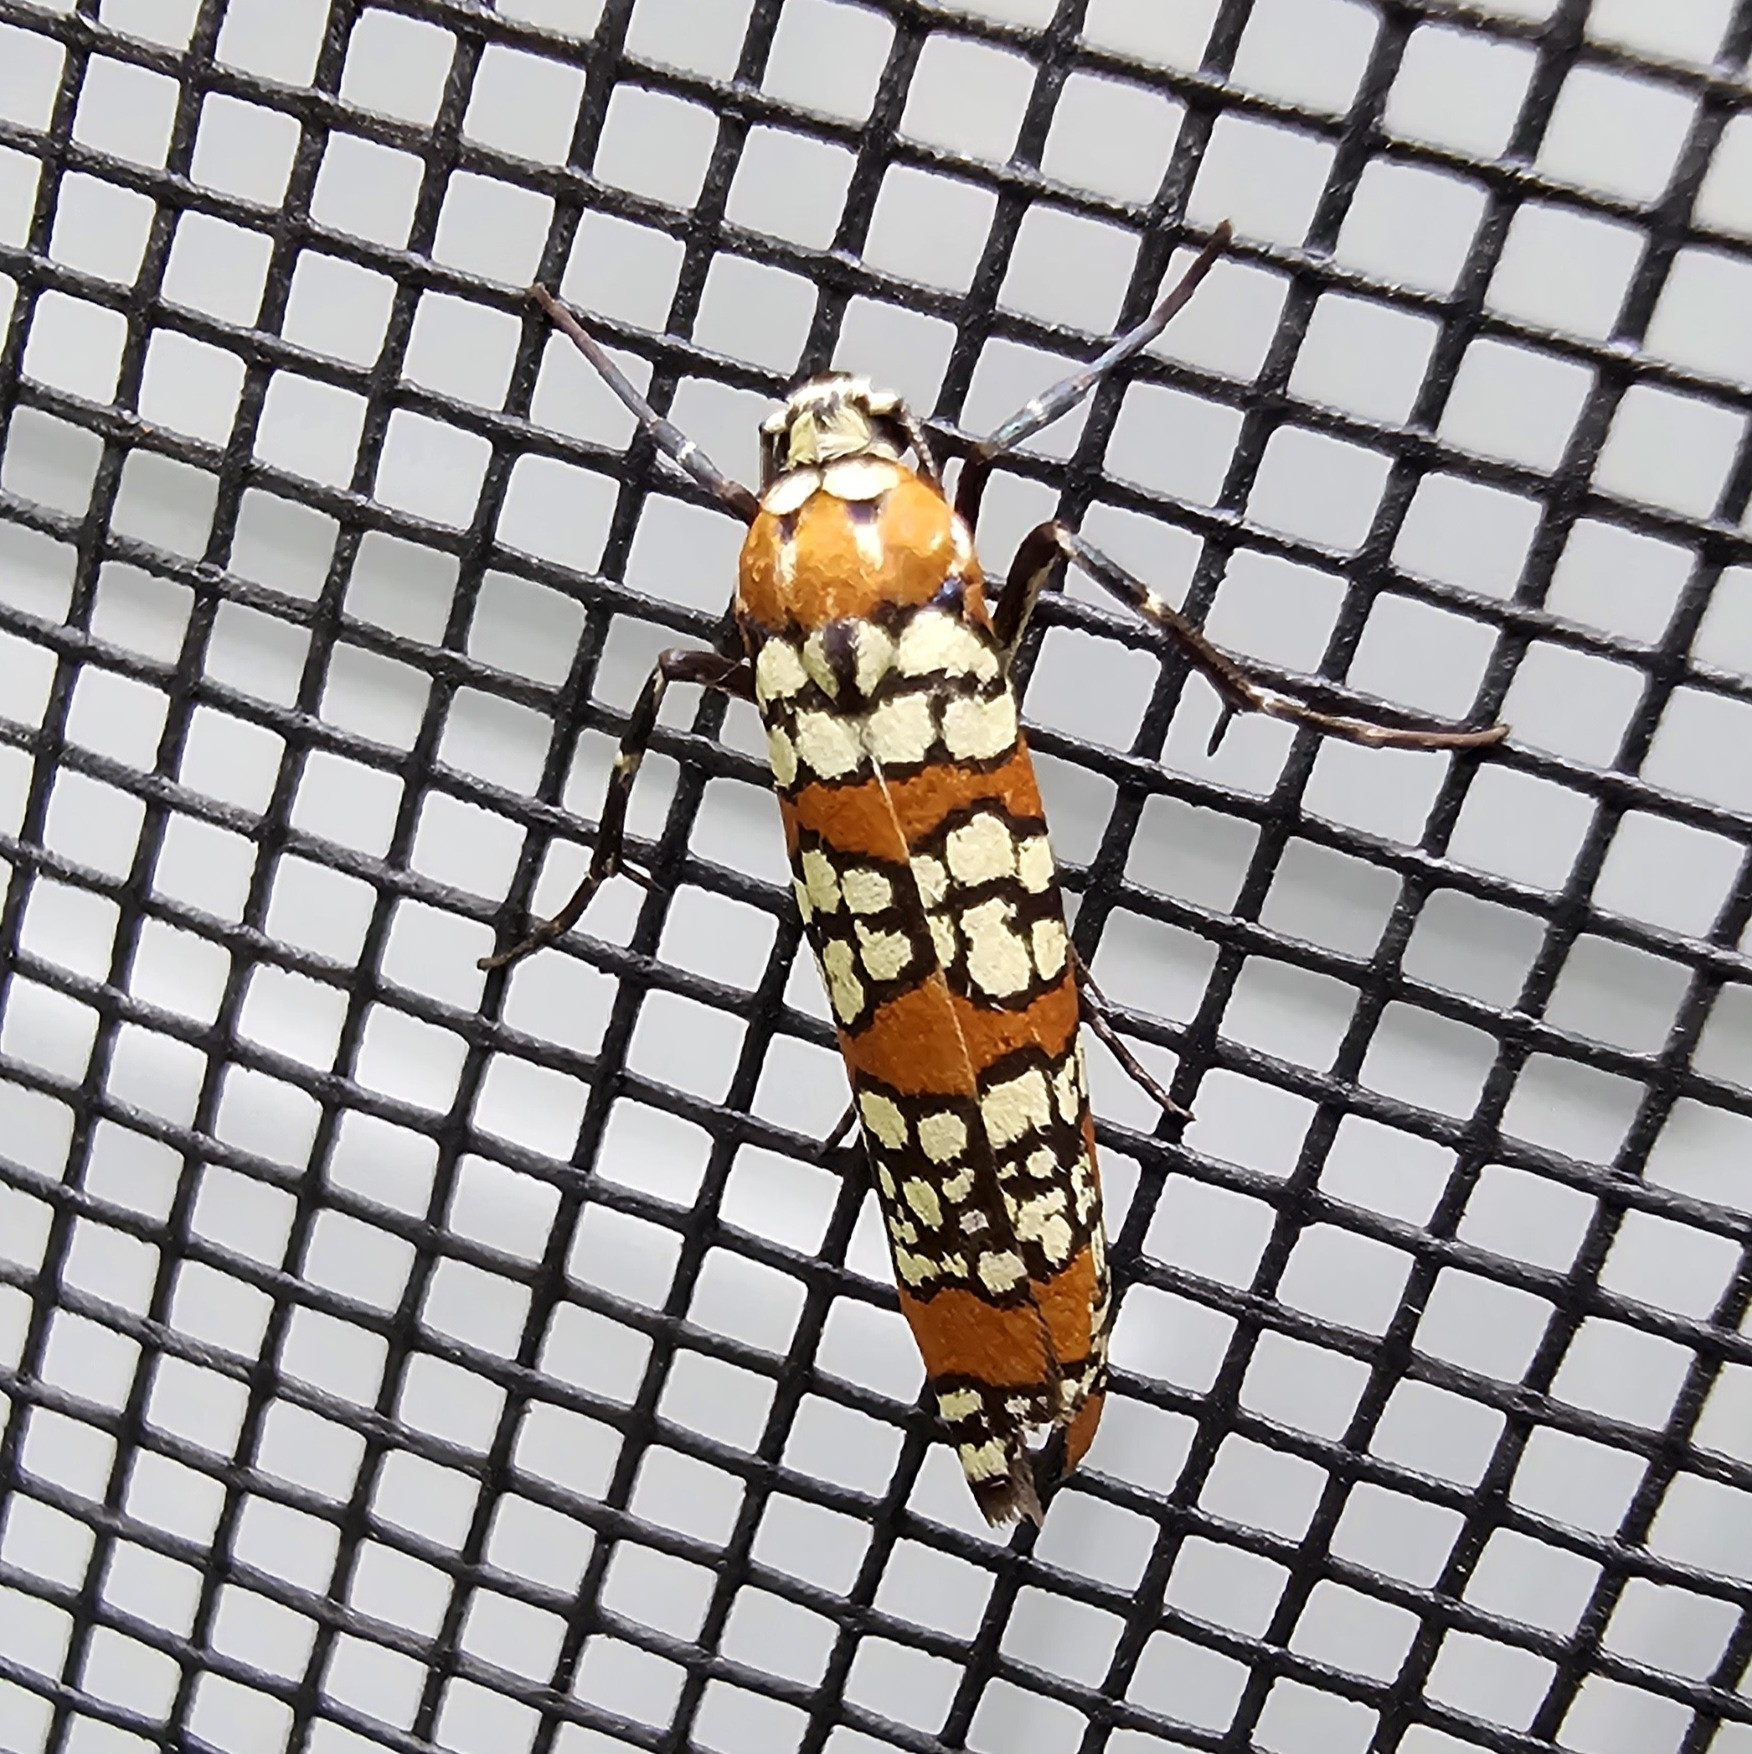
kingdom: Animalia
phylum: Arthropoda
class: Insecta
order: Lepidoptera
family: Attevidae
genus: Atteva
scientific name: Atteva punctella
